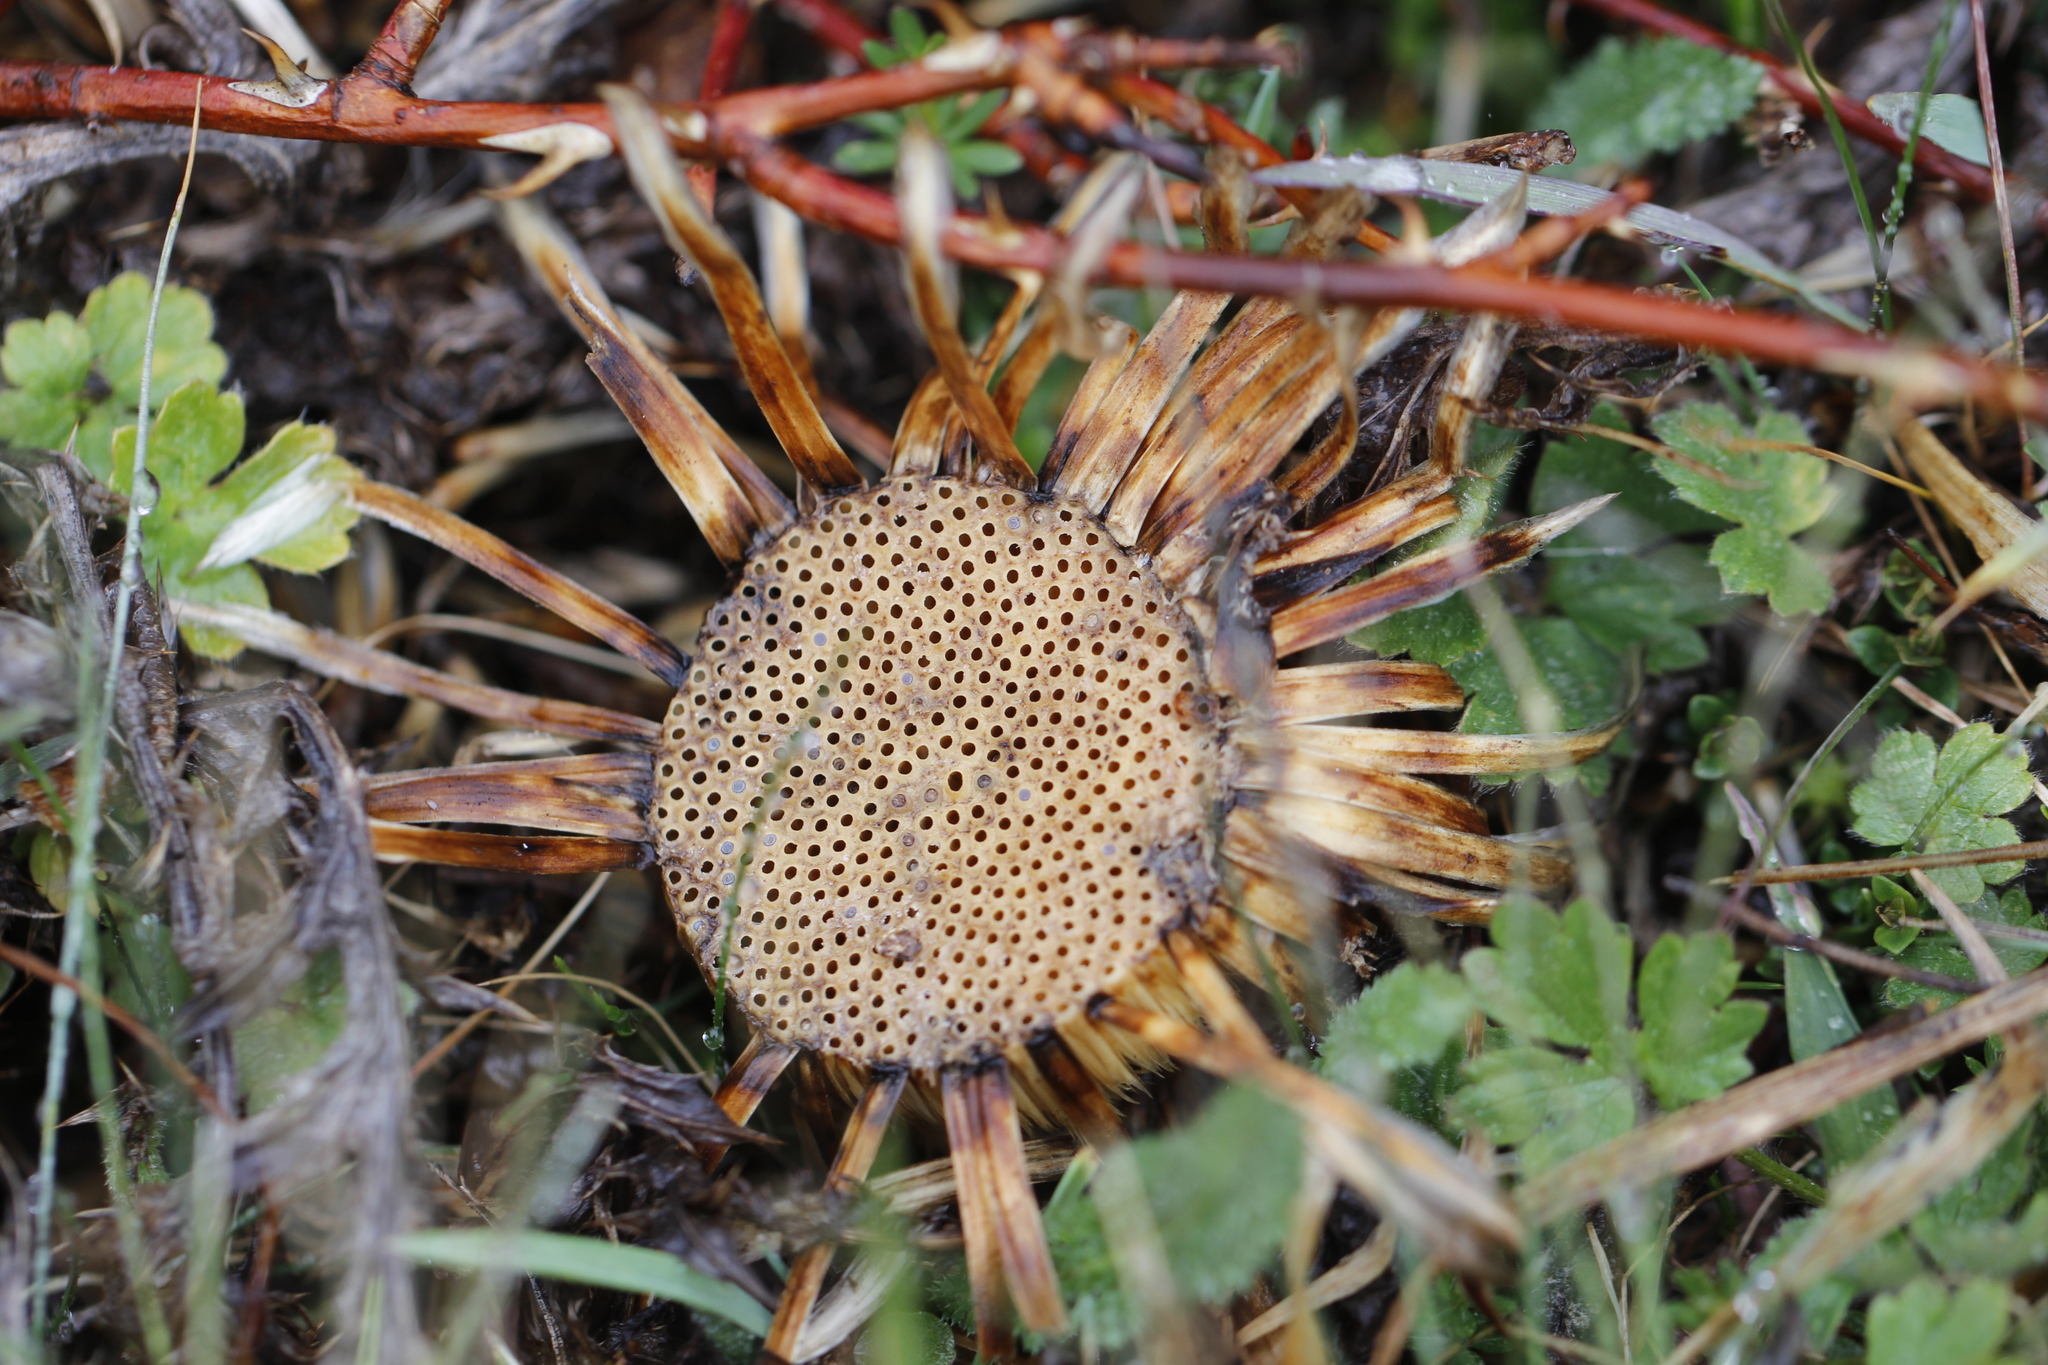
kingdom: Plantae
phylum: Tracheophyta
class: Magnoliopsida
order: Asterales
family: Asteraceae
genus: Carlina
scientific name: Carlina acaulis
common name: Stemless carline thistle
